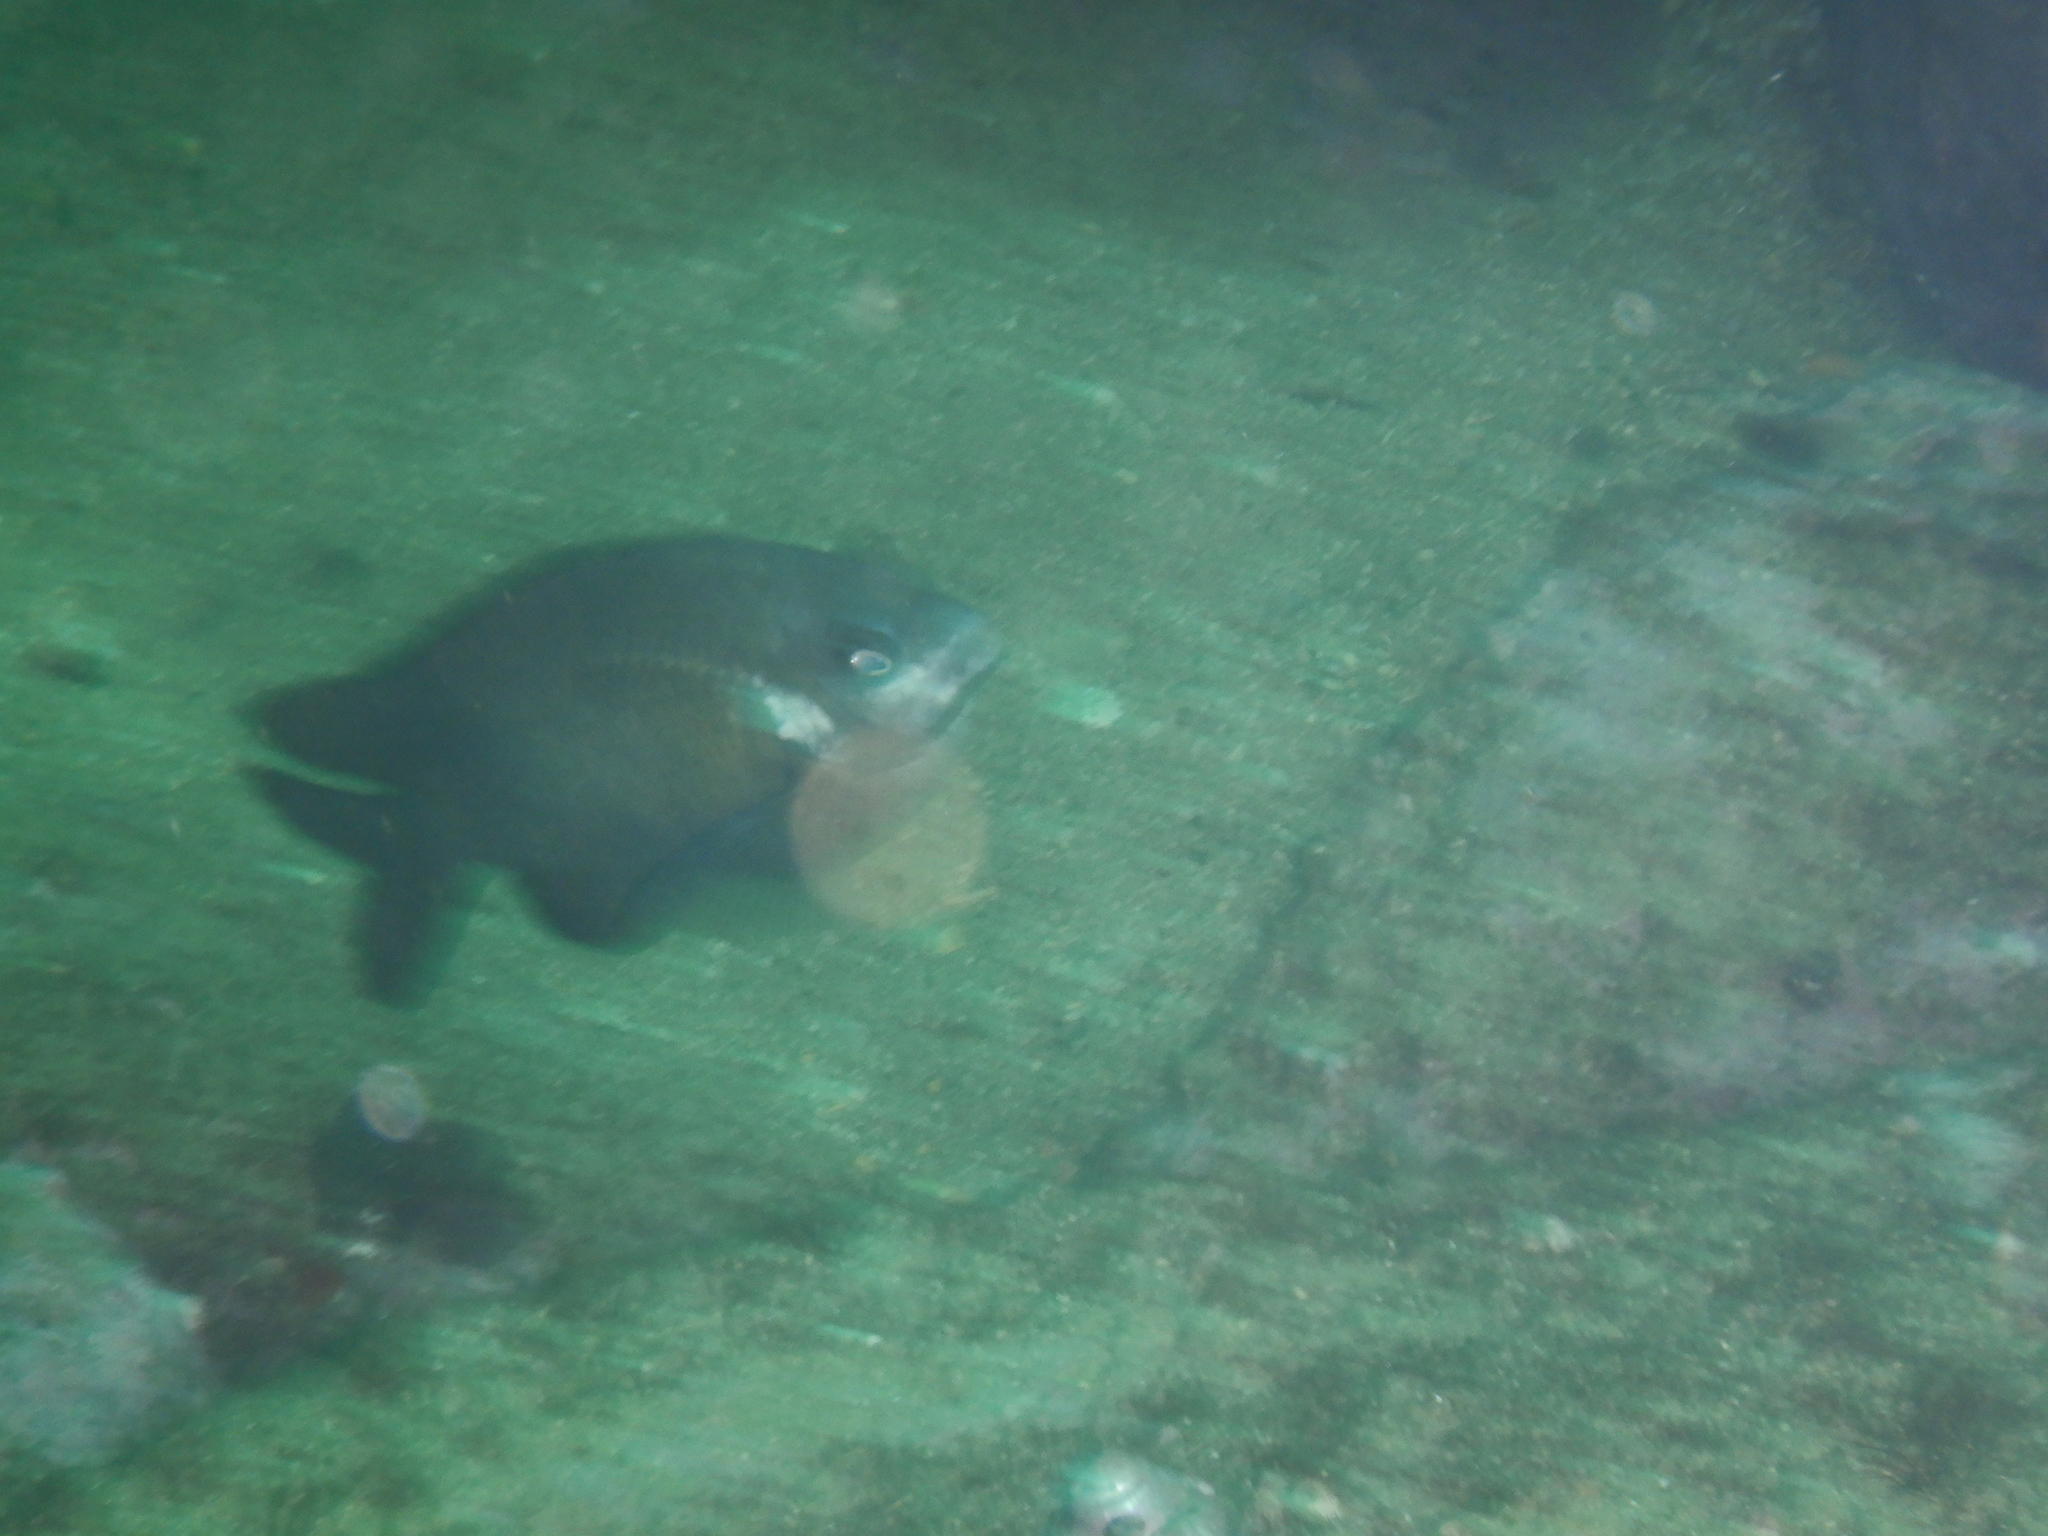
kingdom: Animalia
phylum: Chordata
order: Perciformes
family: Pomacentridae
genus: Parma
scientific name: Parma microlepis
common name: White-ear
